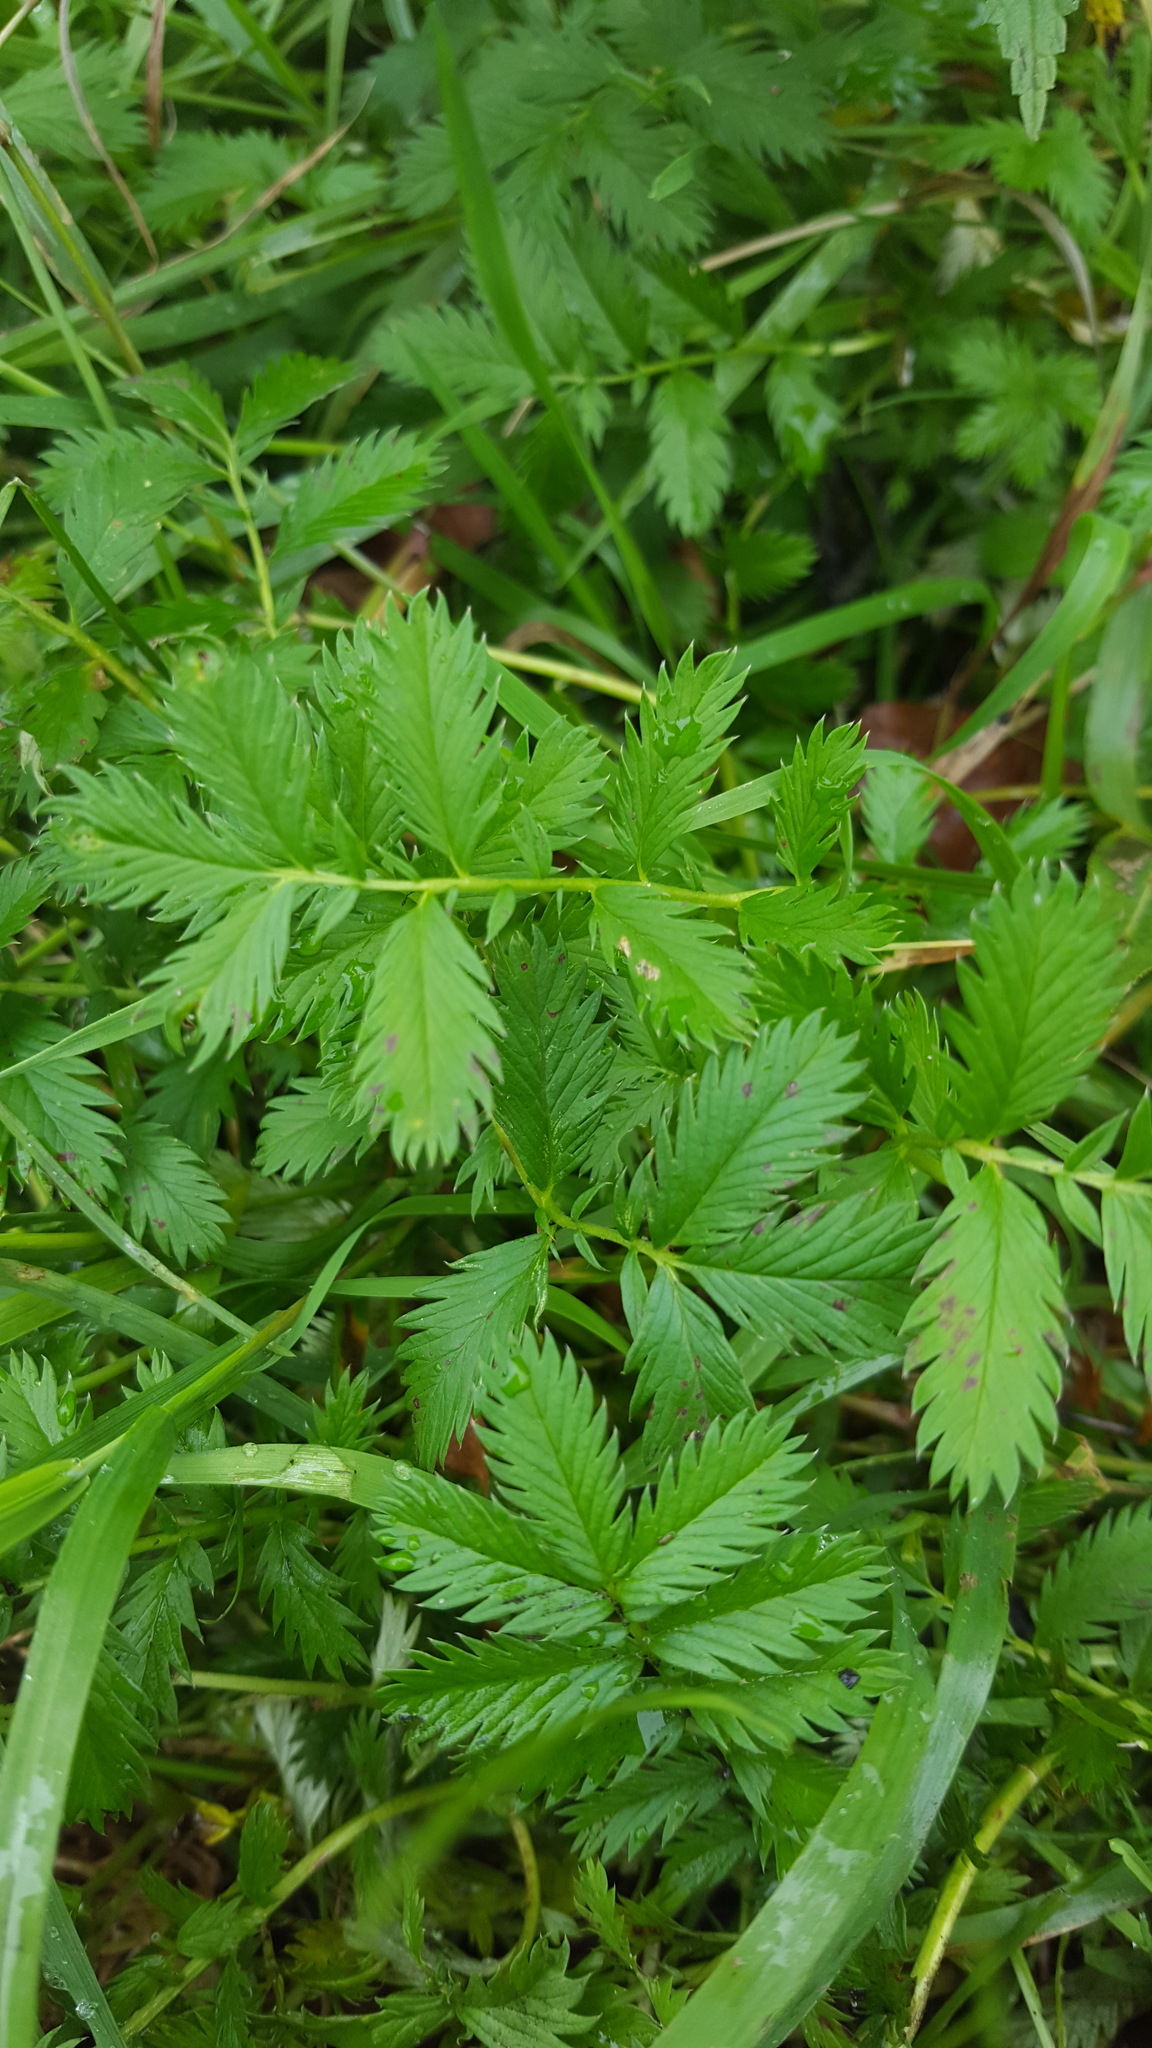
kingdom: Plantae
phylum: Tracheophyta
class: Magnoliopsida
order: Rosales
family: Rosaceae
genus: Argentina
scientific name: Argentina anserina
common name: Common silverweed
